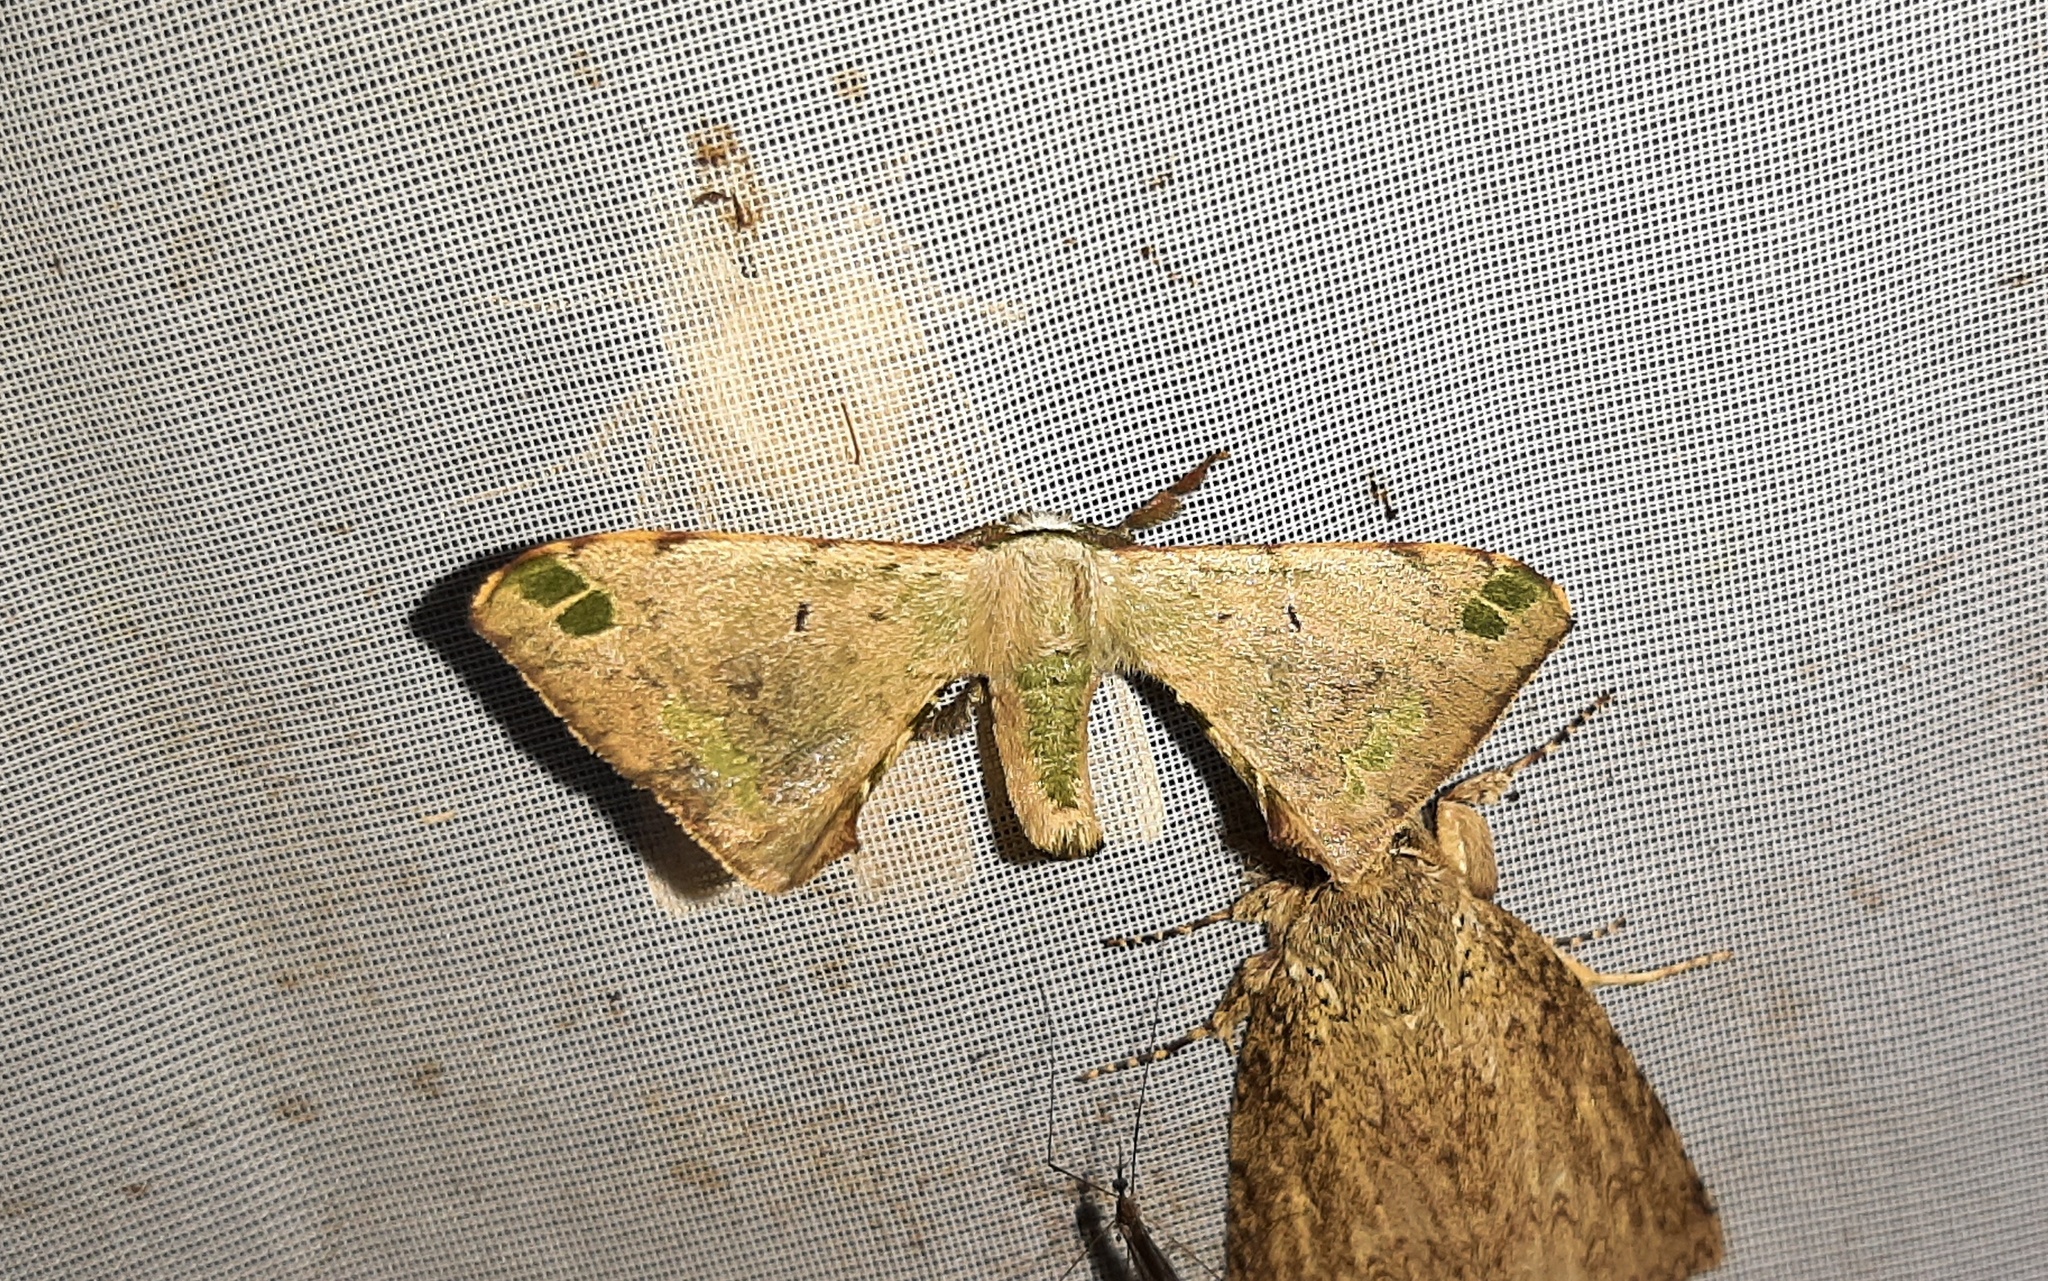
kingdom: Animalia
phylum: Arthropoda
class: Insecta
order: Lepidoptera
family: Bombycidae
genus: Anticla
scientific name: Anticla antica
